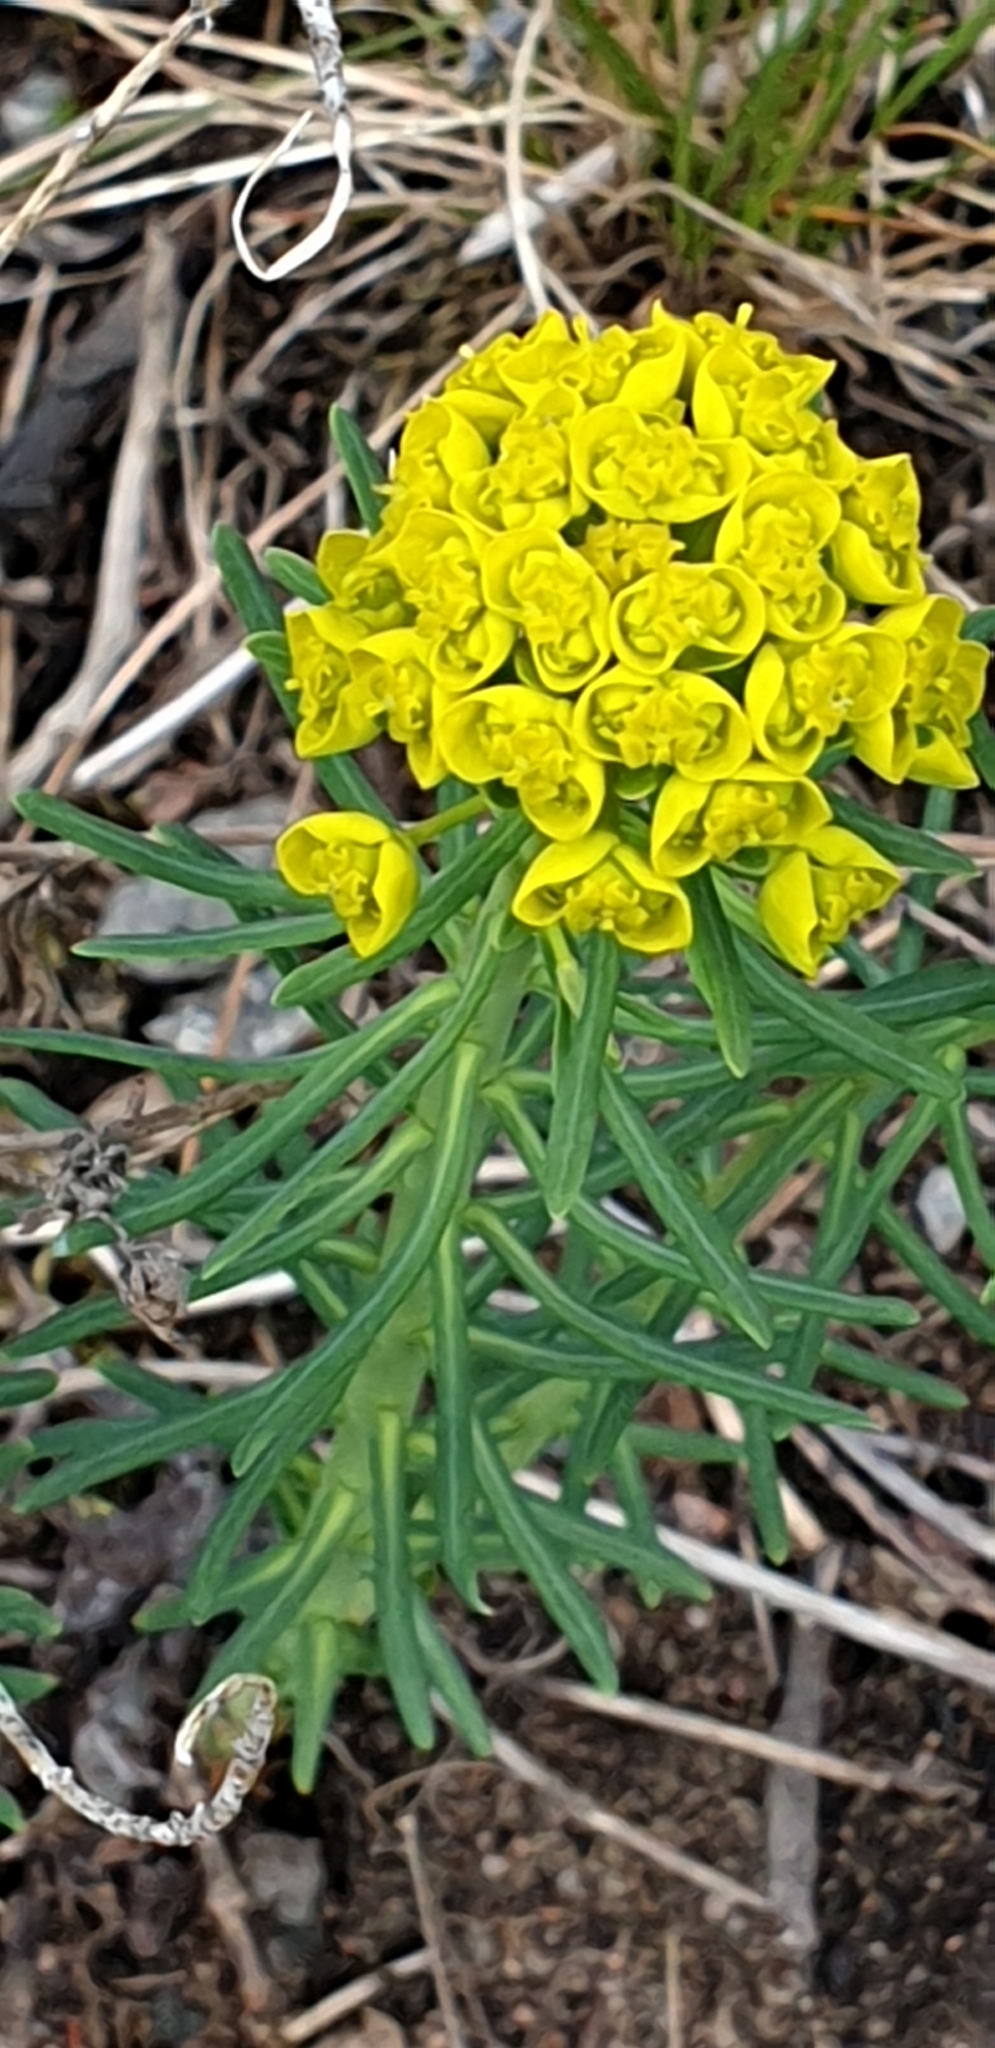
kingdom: Plantae
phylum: Tracheophyta
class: Magnoliopsida
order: Malpighiales
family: Euphorbiaceae
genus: Euphorbia
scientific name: Euphorbia cyparissias
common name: Cypress spurge
